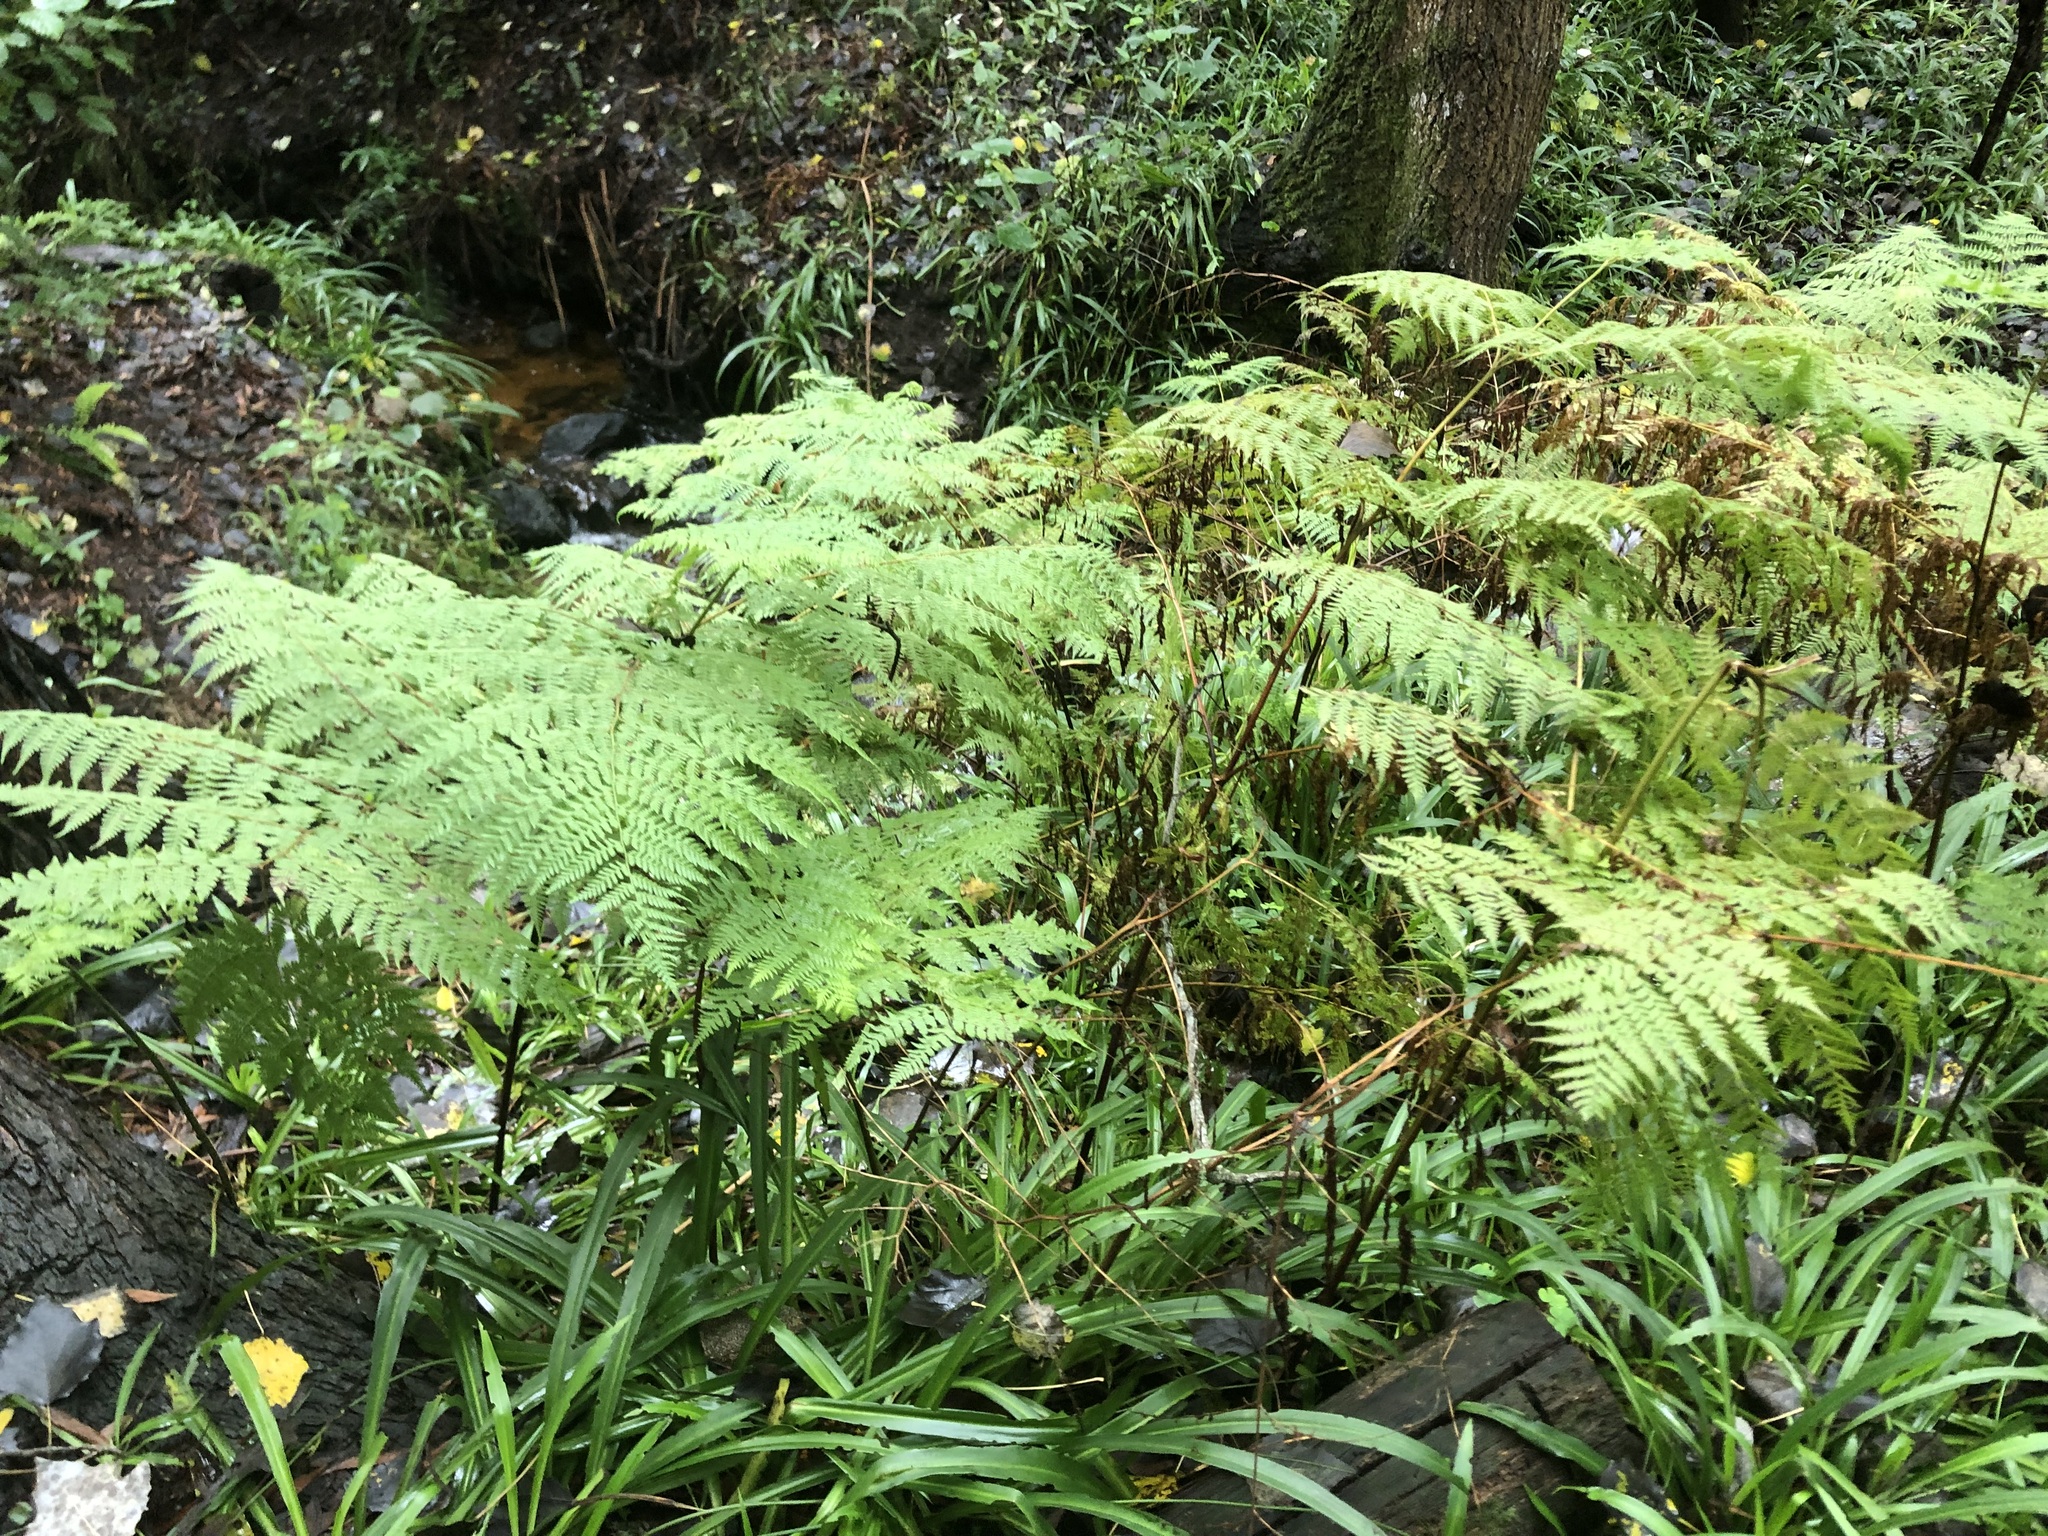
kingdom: Plantae
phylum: Tracheophyta
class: Polypodiopsida
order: Polypodiales
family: Dennstaedtiaceae
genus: Hypolepis
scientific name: Hypolepis sparsisora
